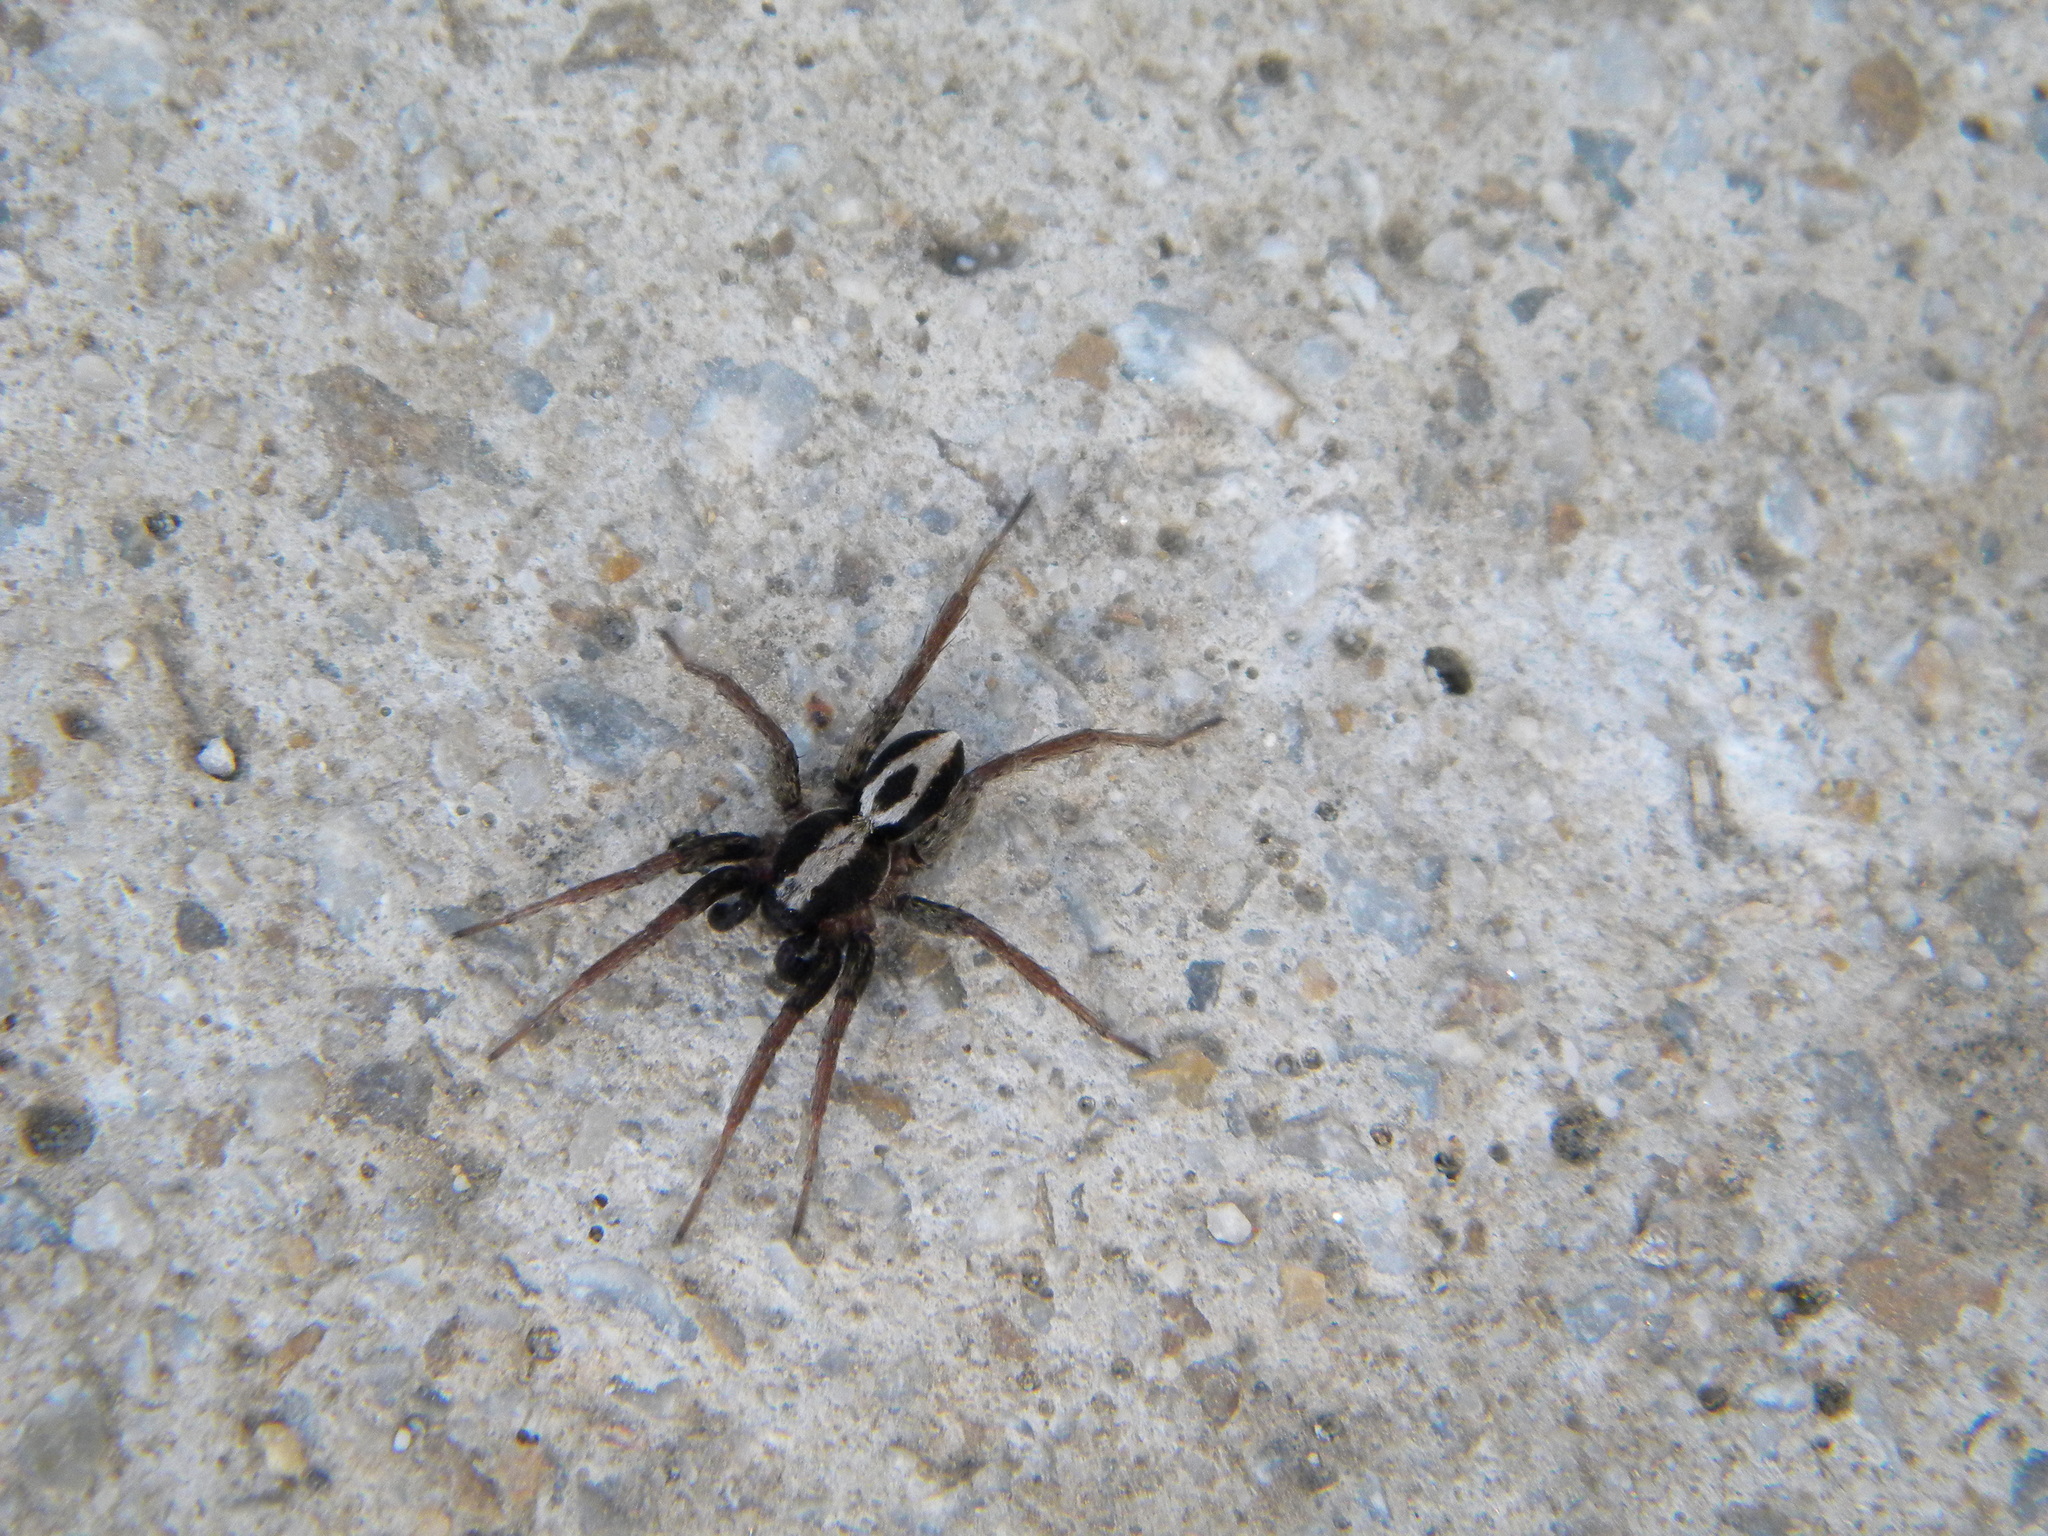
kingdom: Animalia
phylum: Arthropoda
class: Arachnida
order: Araneae
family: Lycosidae
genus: Alopecosa
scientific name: Alopecosa albofasciata
